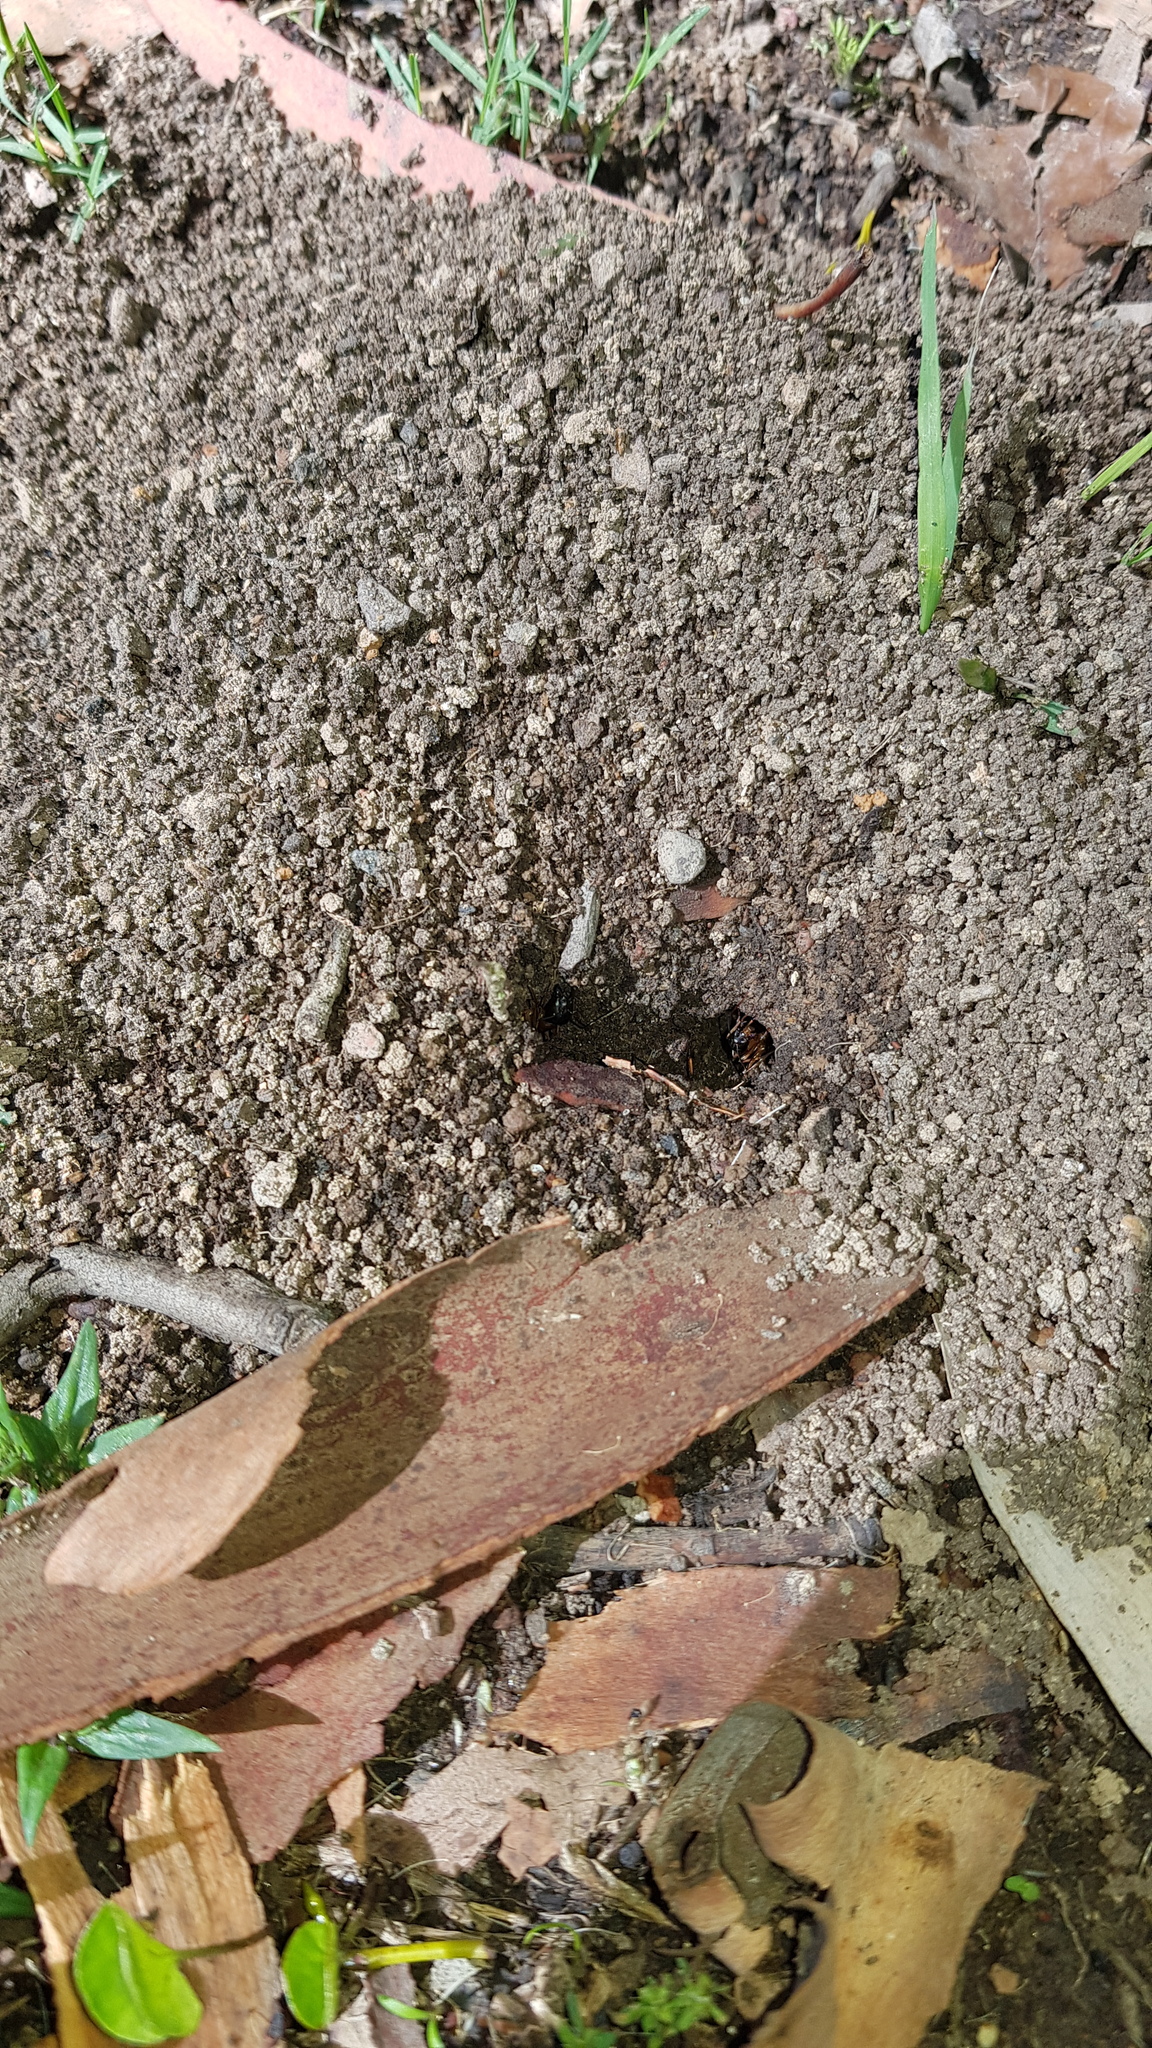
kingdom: Animalia
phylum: Arthropoda
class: Insecta
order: Hymenoptera
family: Formicidae
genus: Camponotus
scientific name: Camponotus consobrinus
